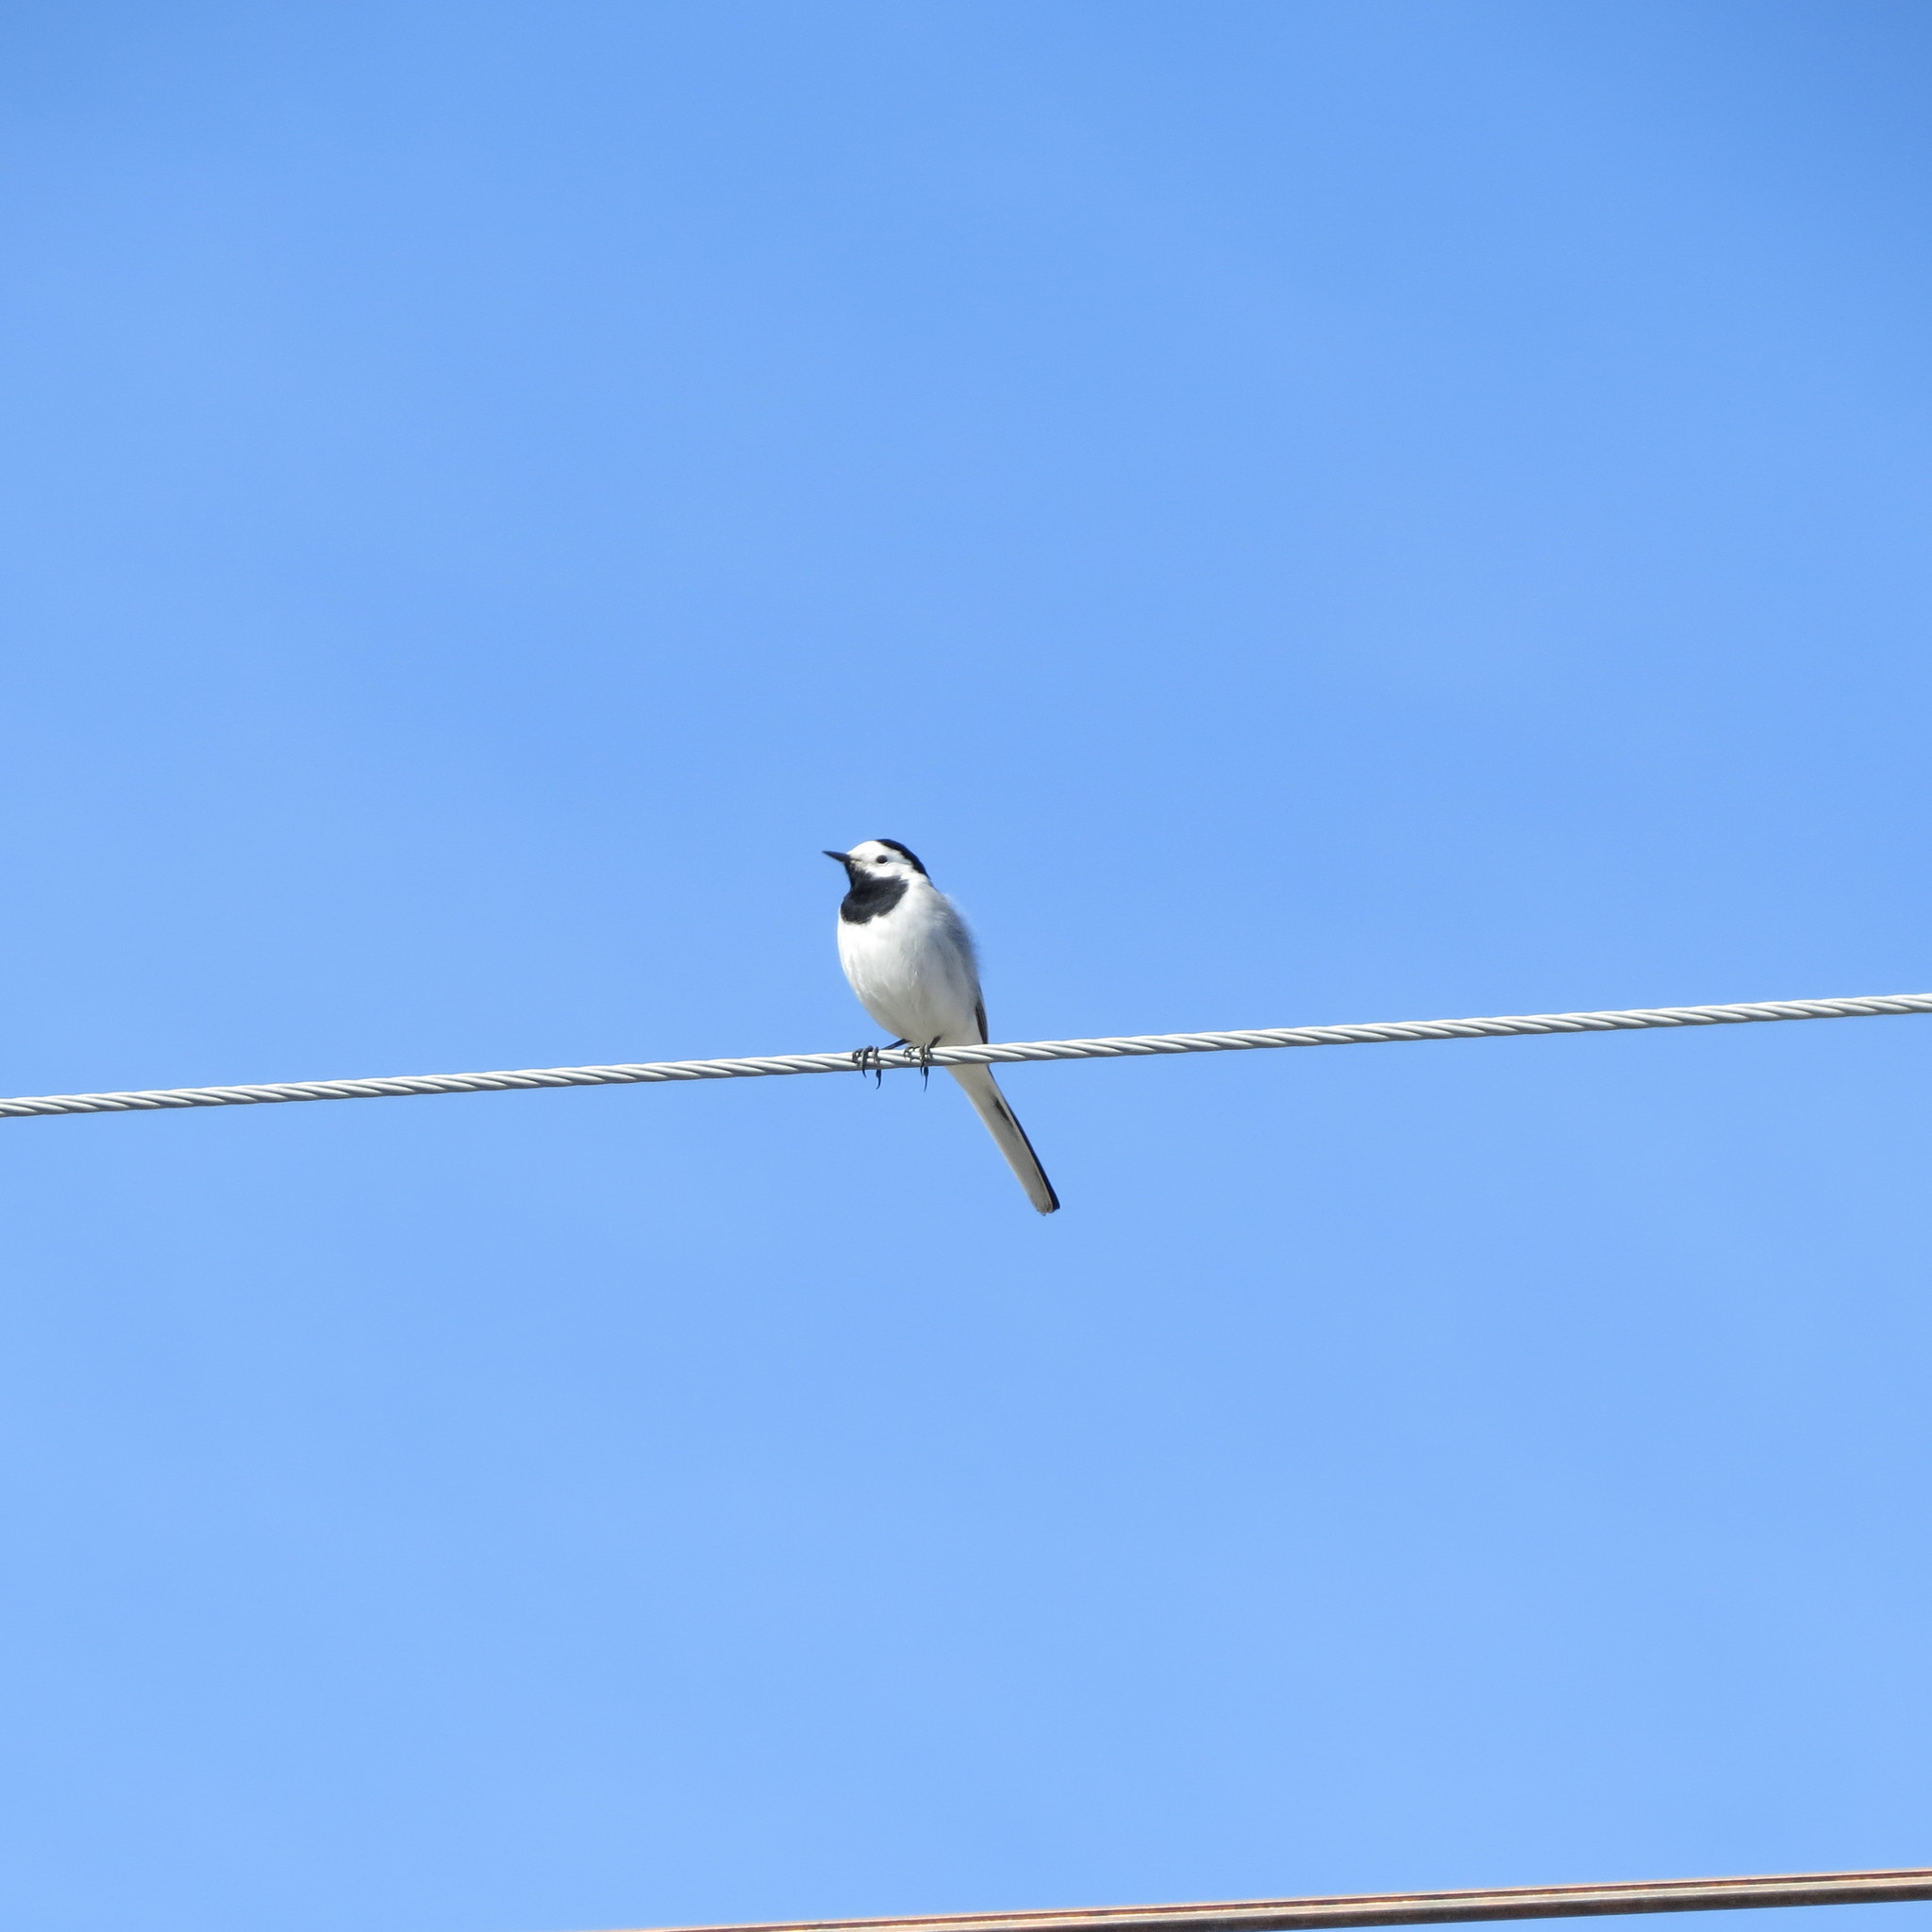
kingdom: Animalia
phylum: Chordata
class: Aves
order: Passeriformes
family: Motacillidae
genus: Motacilla
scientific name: Motacilla alba
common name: White wagtail
